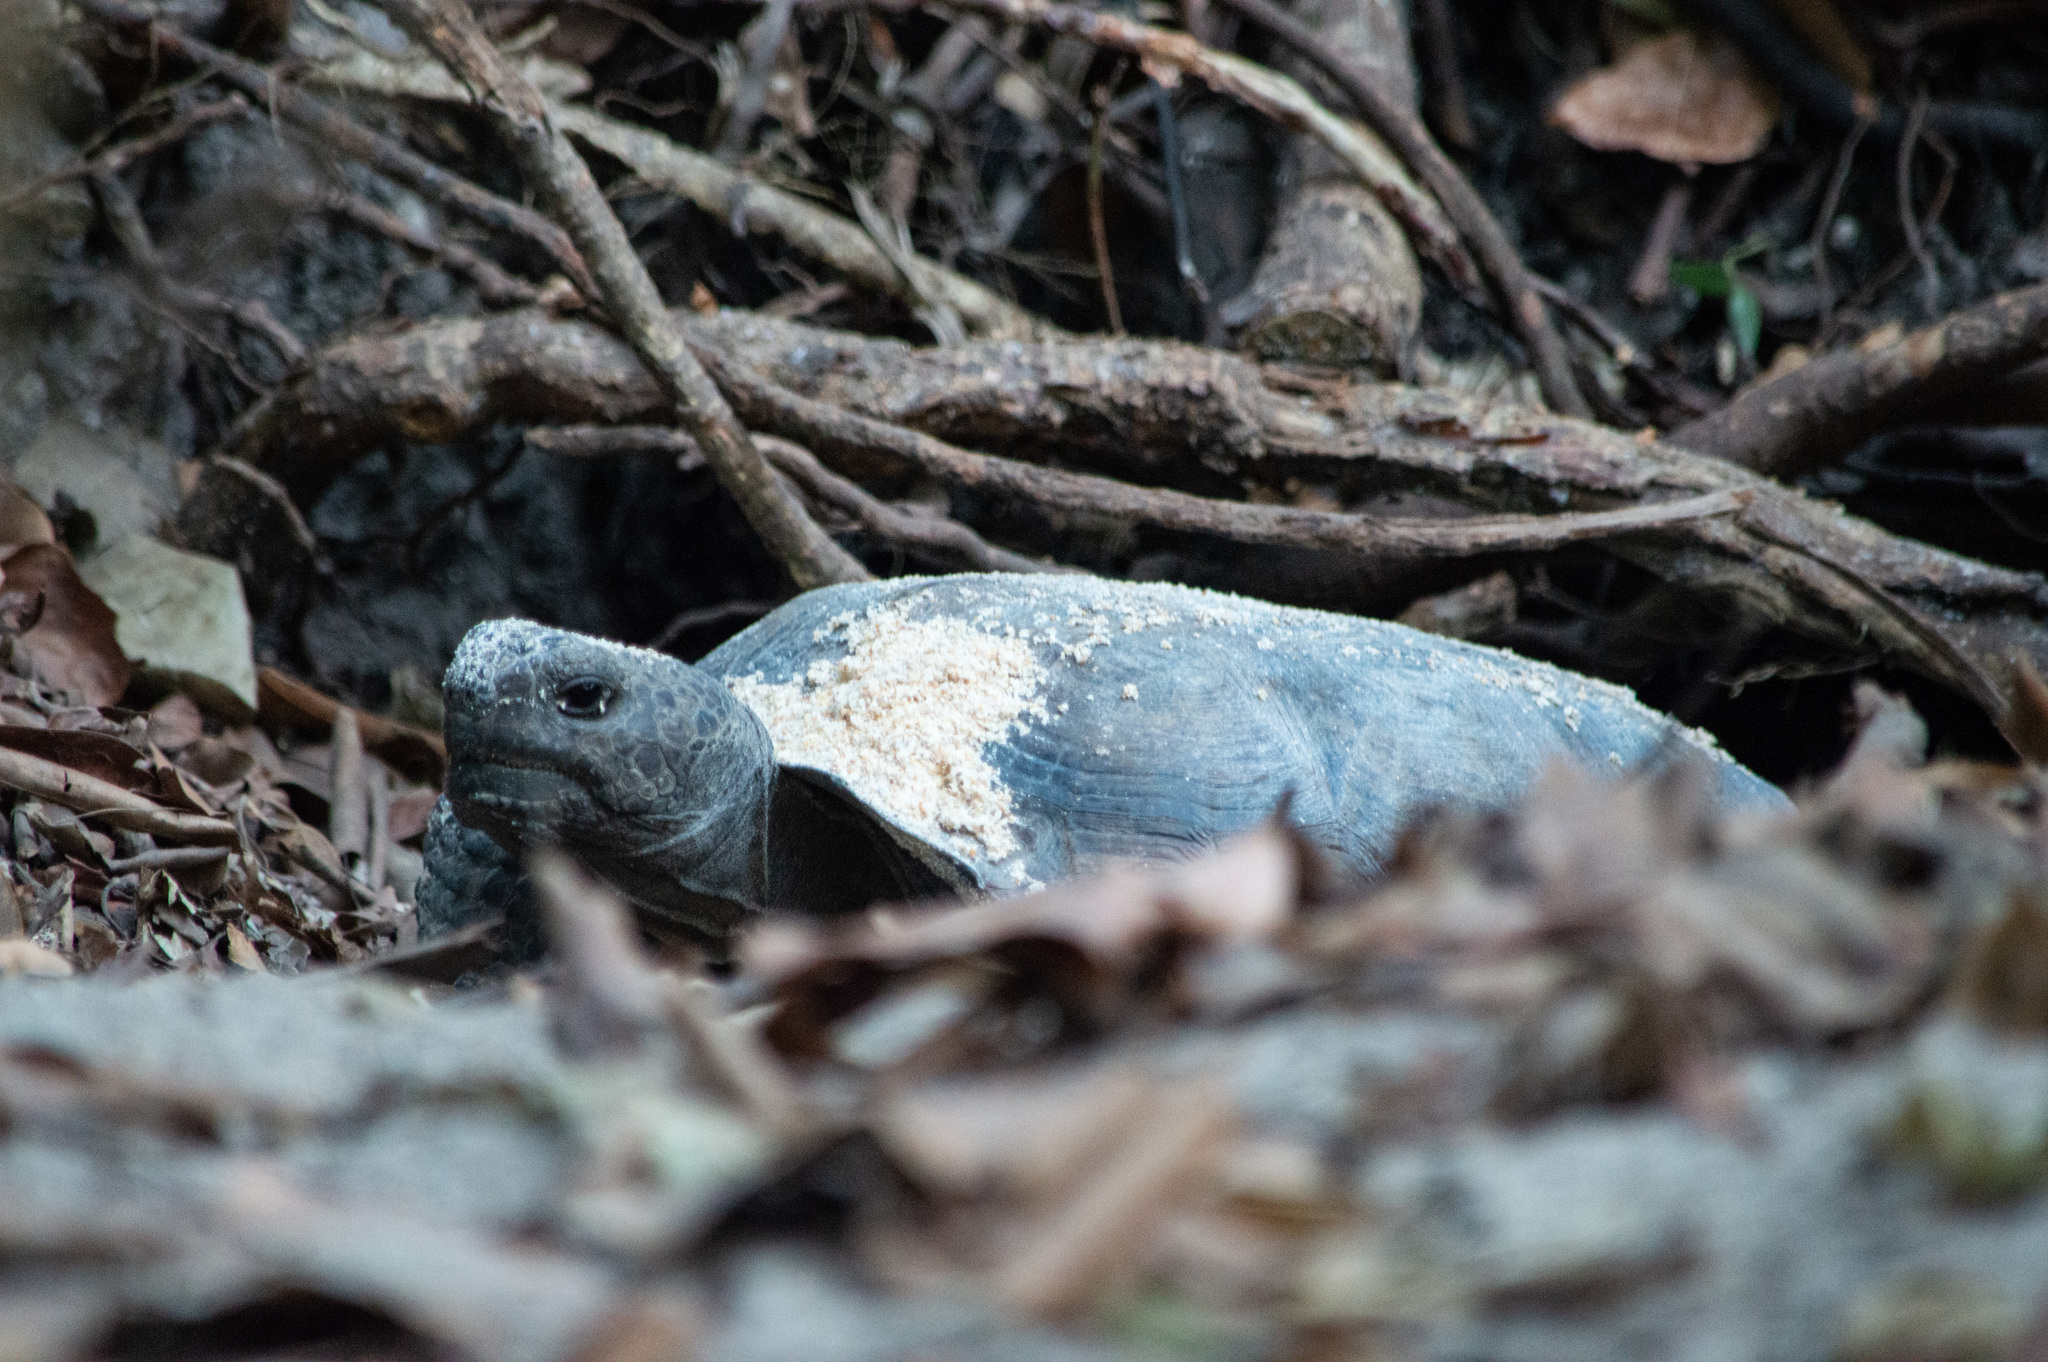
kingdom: Animalia
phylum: Chordata
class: Testudines
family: Testudinidae
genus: Gopherus
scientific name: Gopherus polyphemus
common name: Florida gopher tortoise
